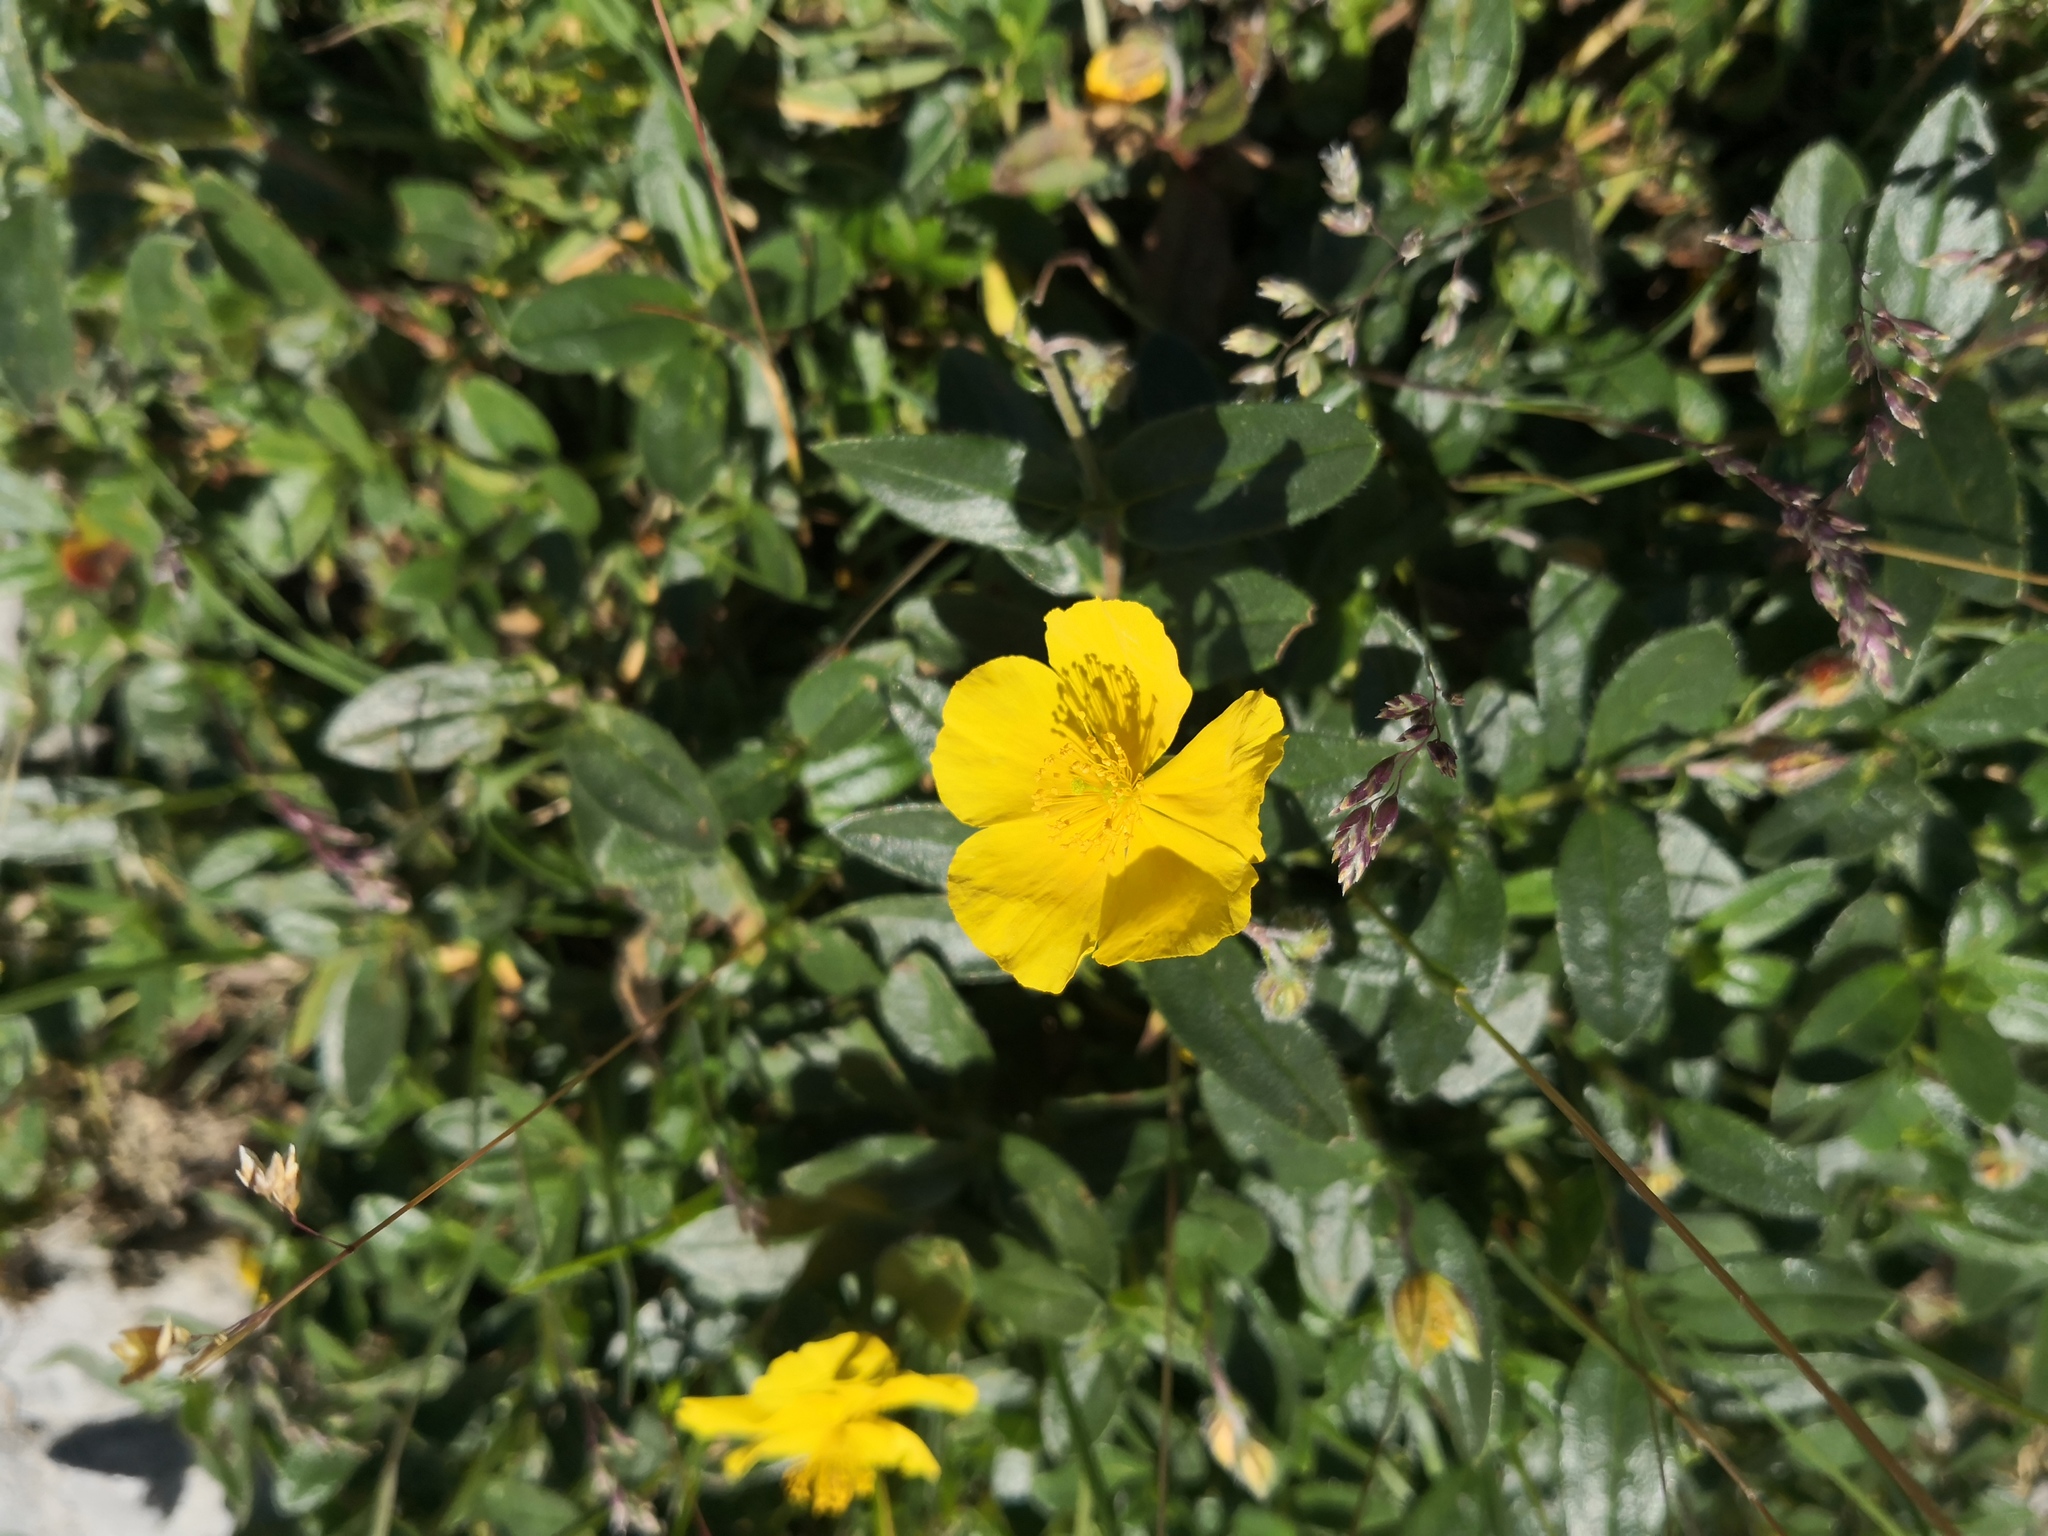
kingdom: Plantae
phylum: Tracheophyta
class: Magnoliopsida
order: Malvales
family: Cistaceae
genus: Helianthemum
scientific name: Helianthemum nummularium
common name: Common rock-rose
